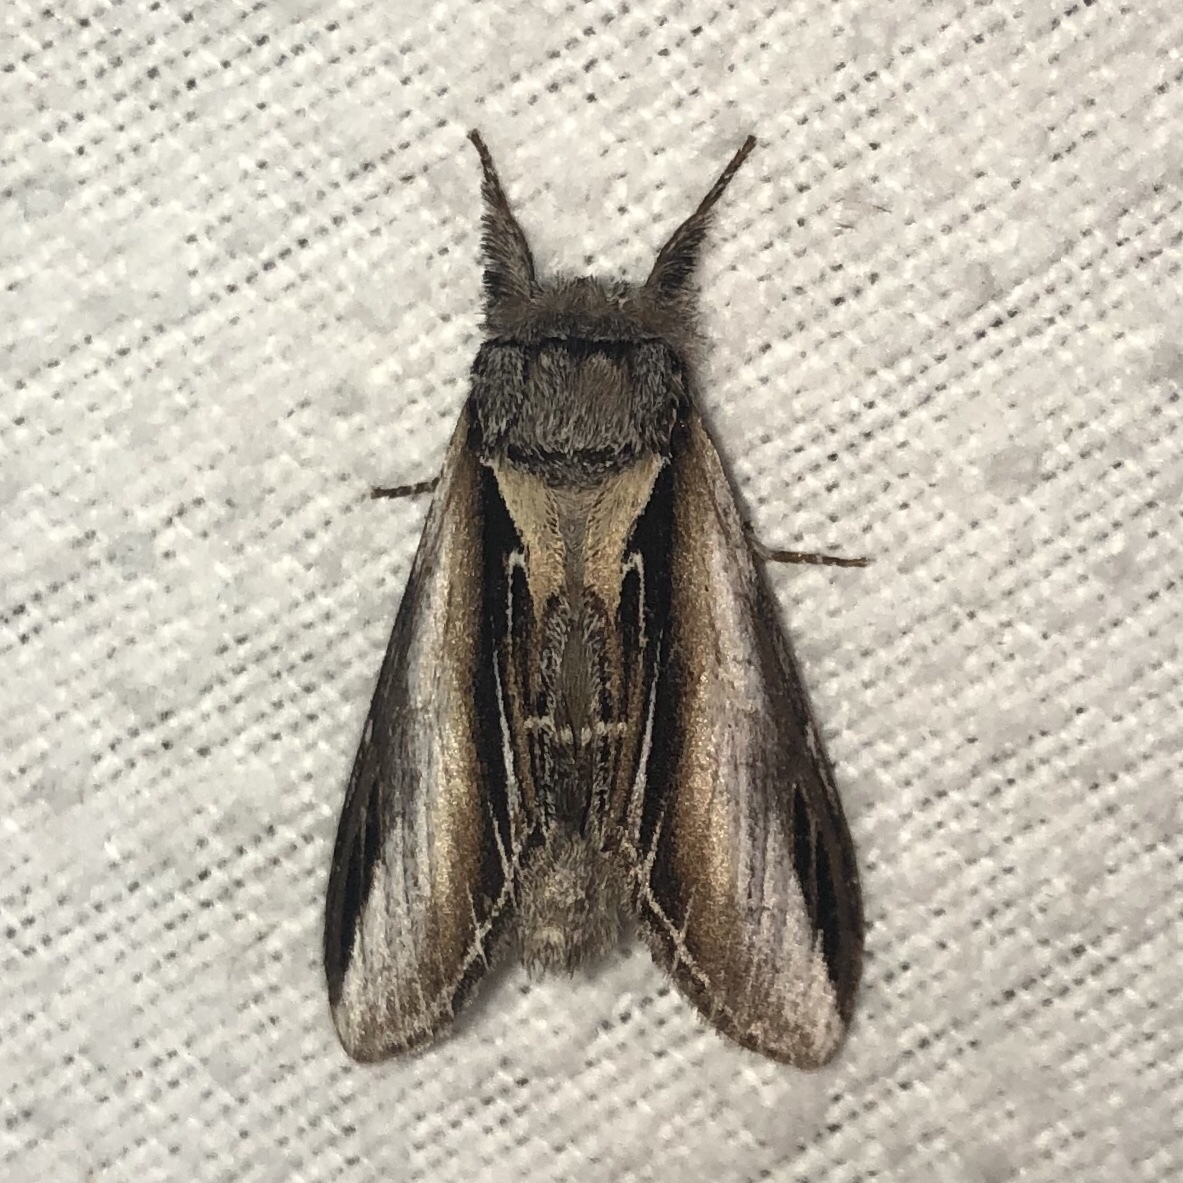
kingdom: Animalia
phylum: Arthropoda
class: Insecta
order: Lepidoptera
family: Notodontidae
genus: Pheosia
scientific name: Pheosia rimosa
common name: Black-rimmed prominent
